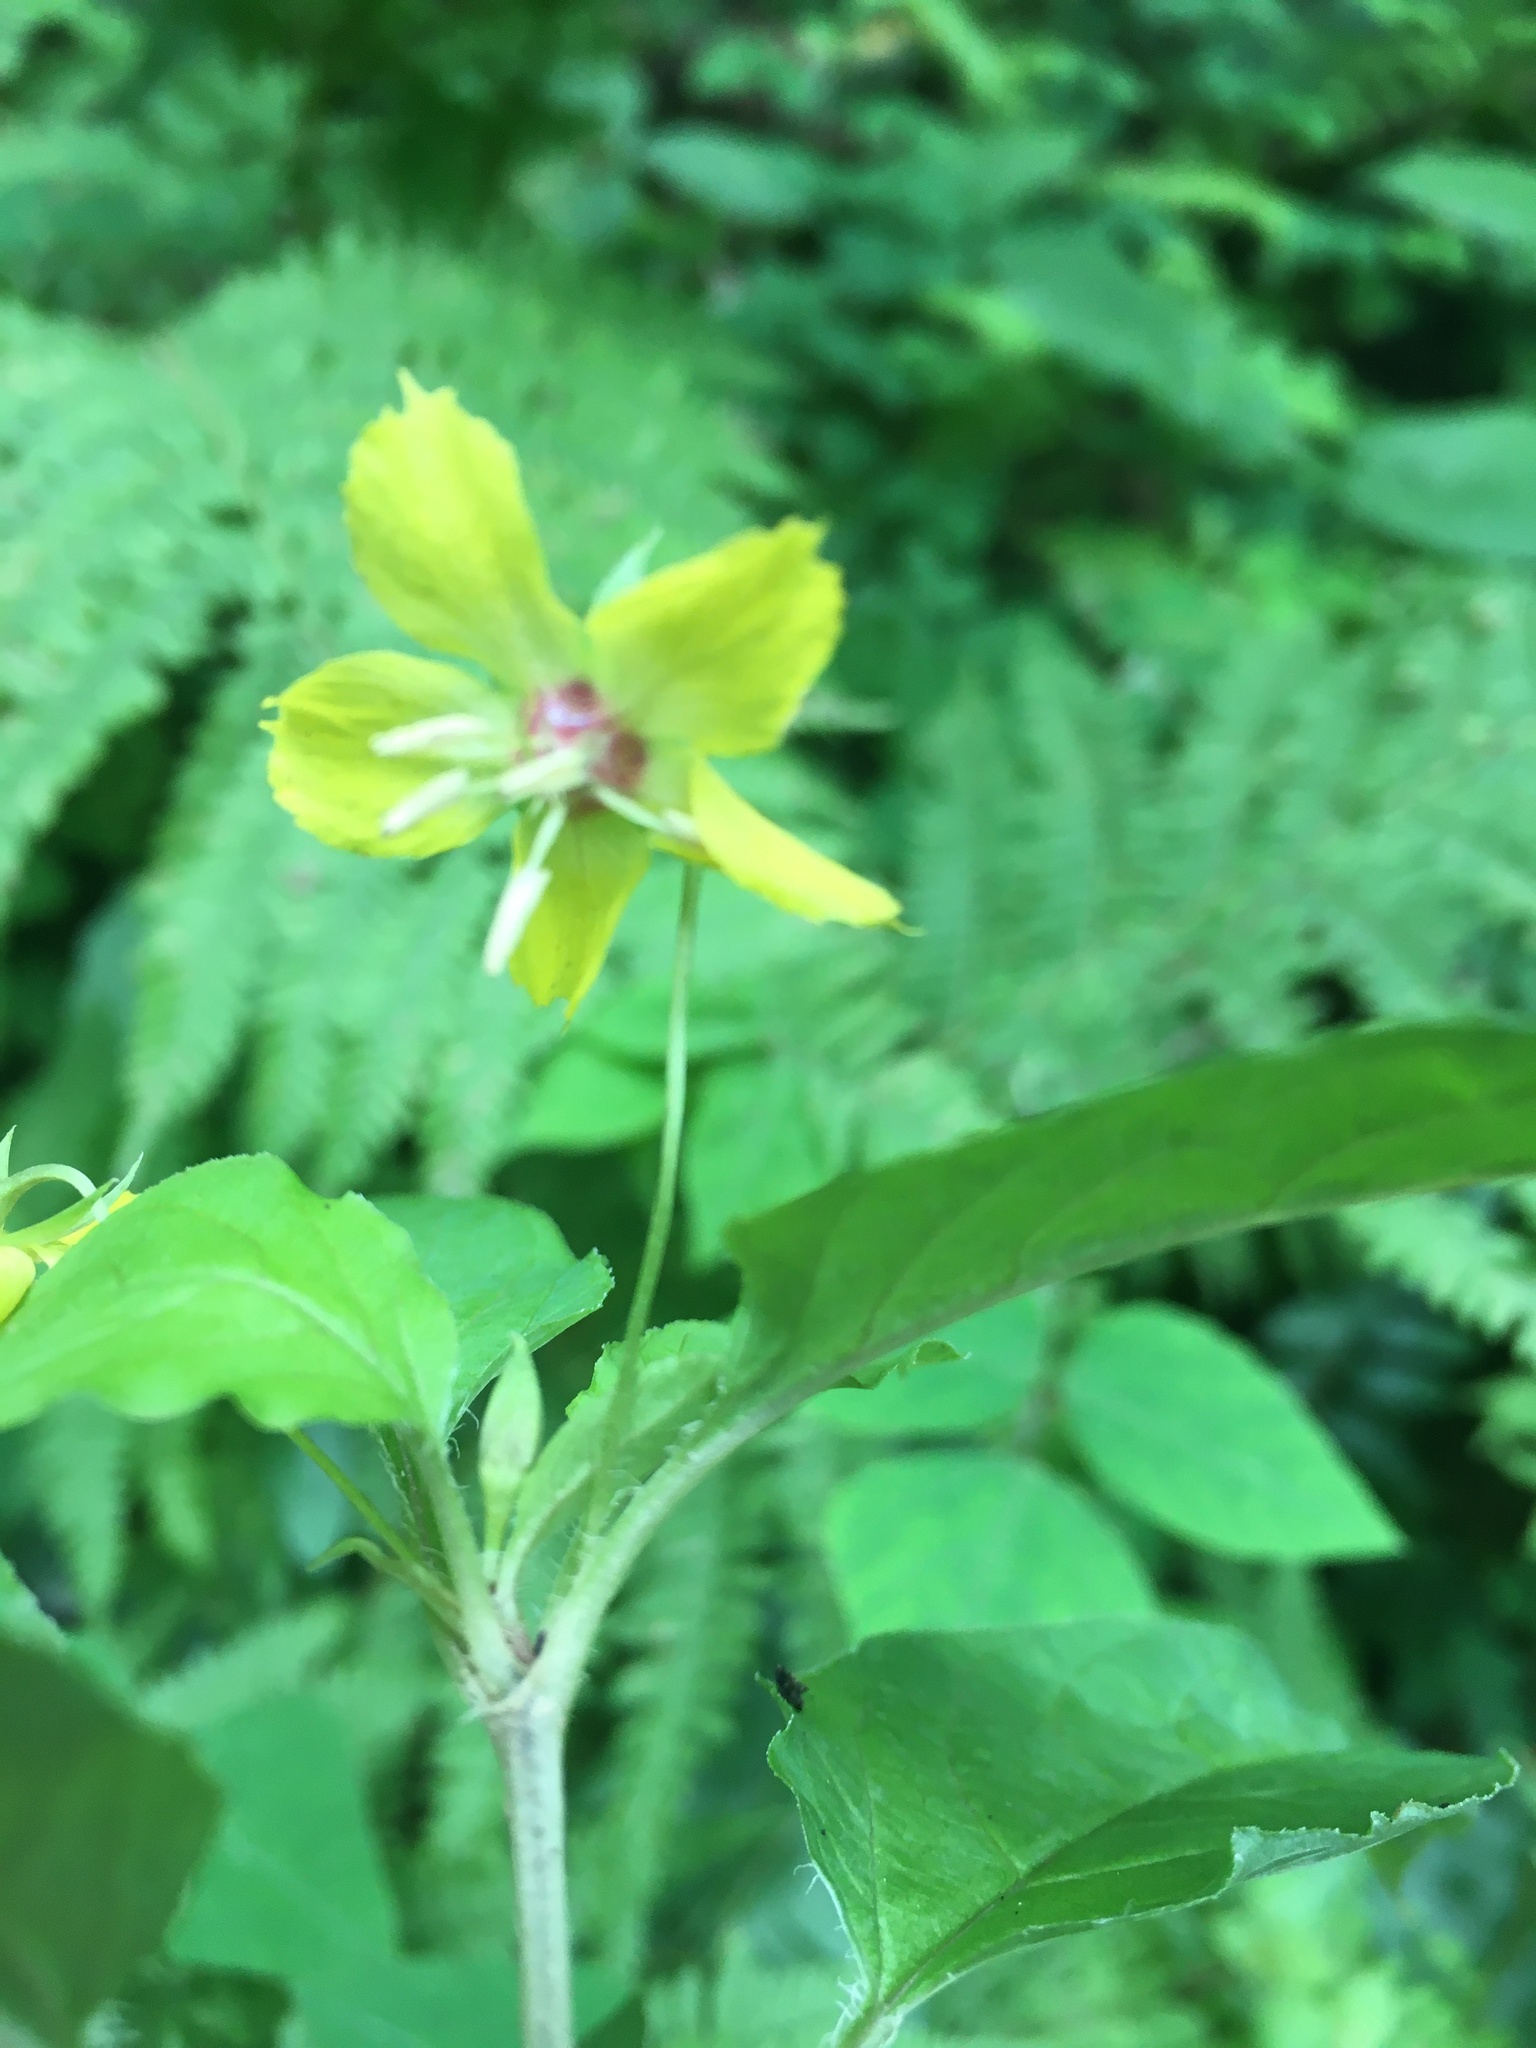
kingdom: Plantae
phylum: Tracheophyta
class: Magnoliopsida
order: Ericales
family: Primulaceae
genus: Lysimachia
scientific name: Lysimachia ciliata
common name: Fringed loosestrife
